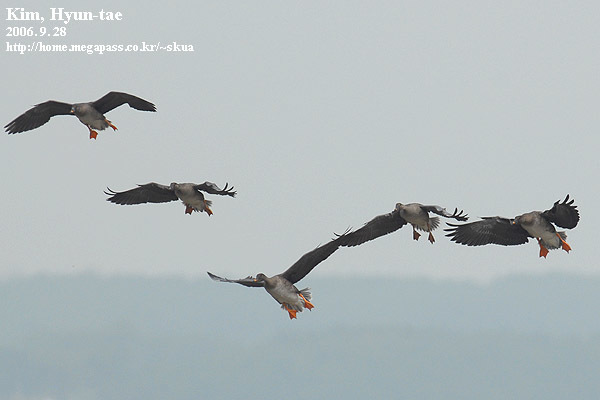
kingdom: Animalia
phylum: Chordata
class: Aves
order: Anseriformes
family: Anatidae
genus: Anser
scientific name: Anser fabalis
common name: Bean goose
